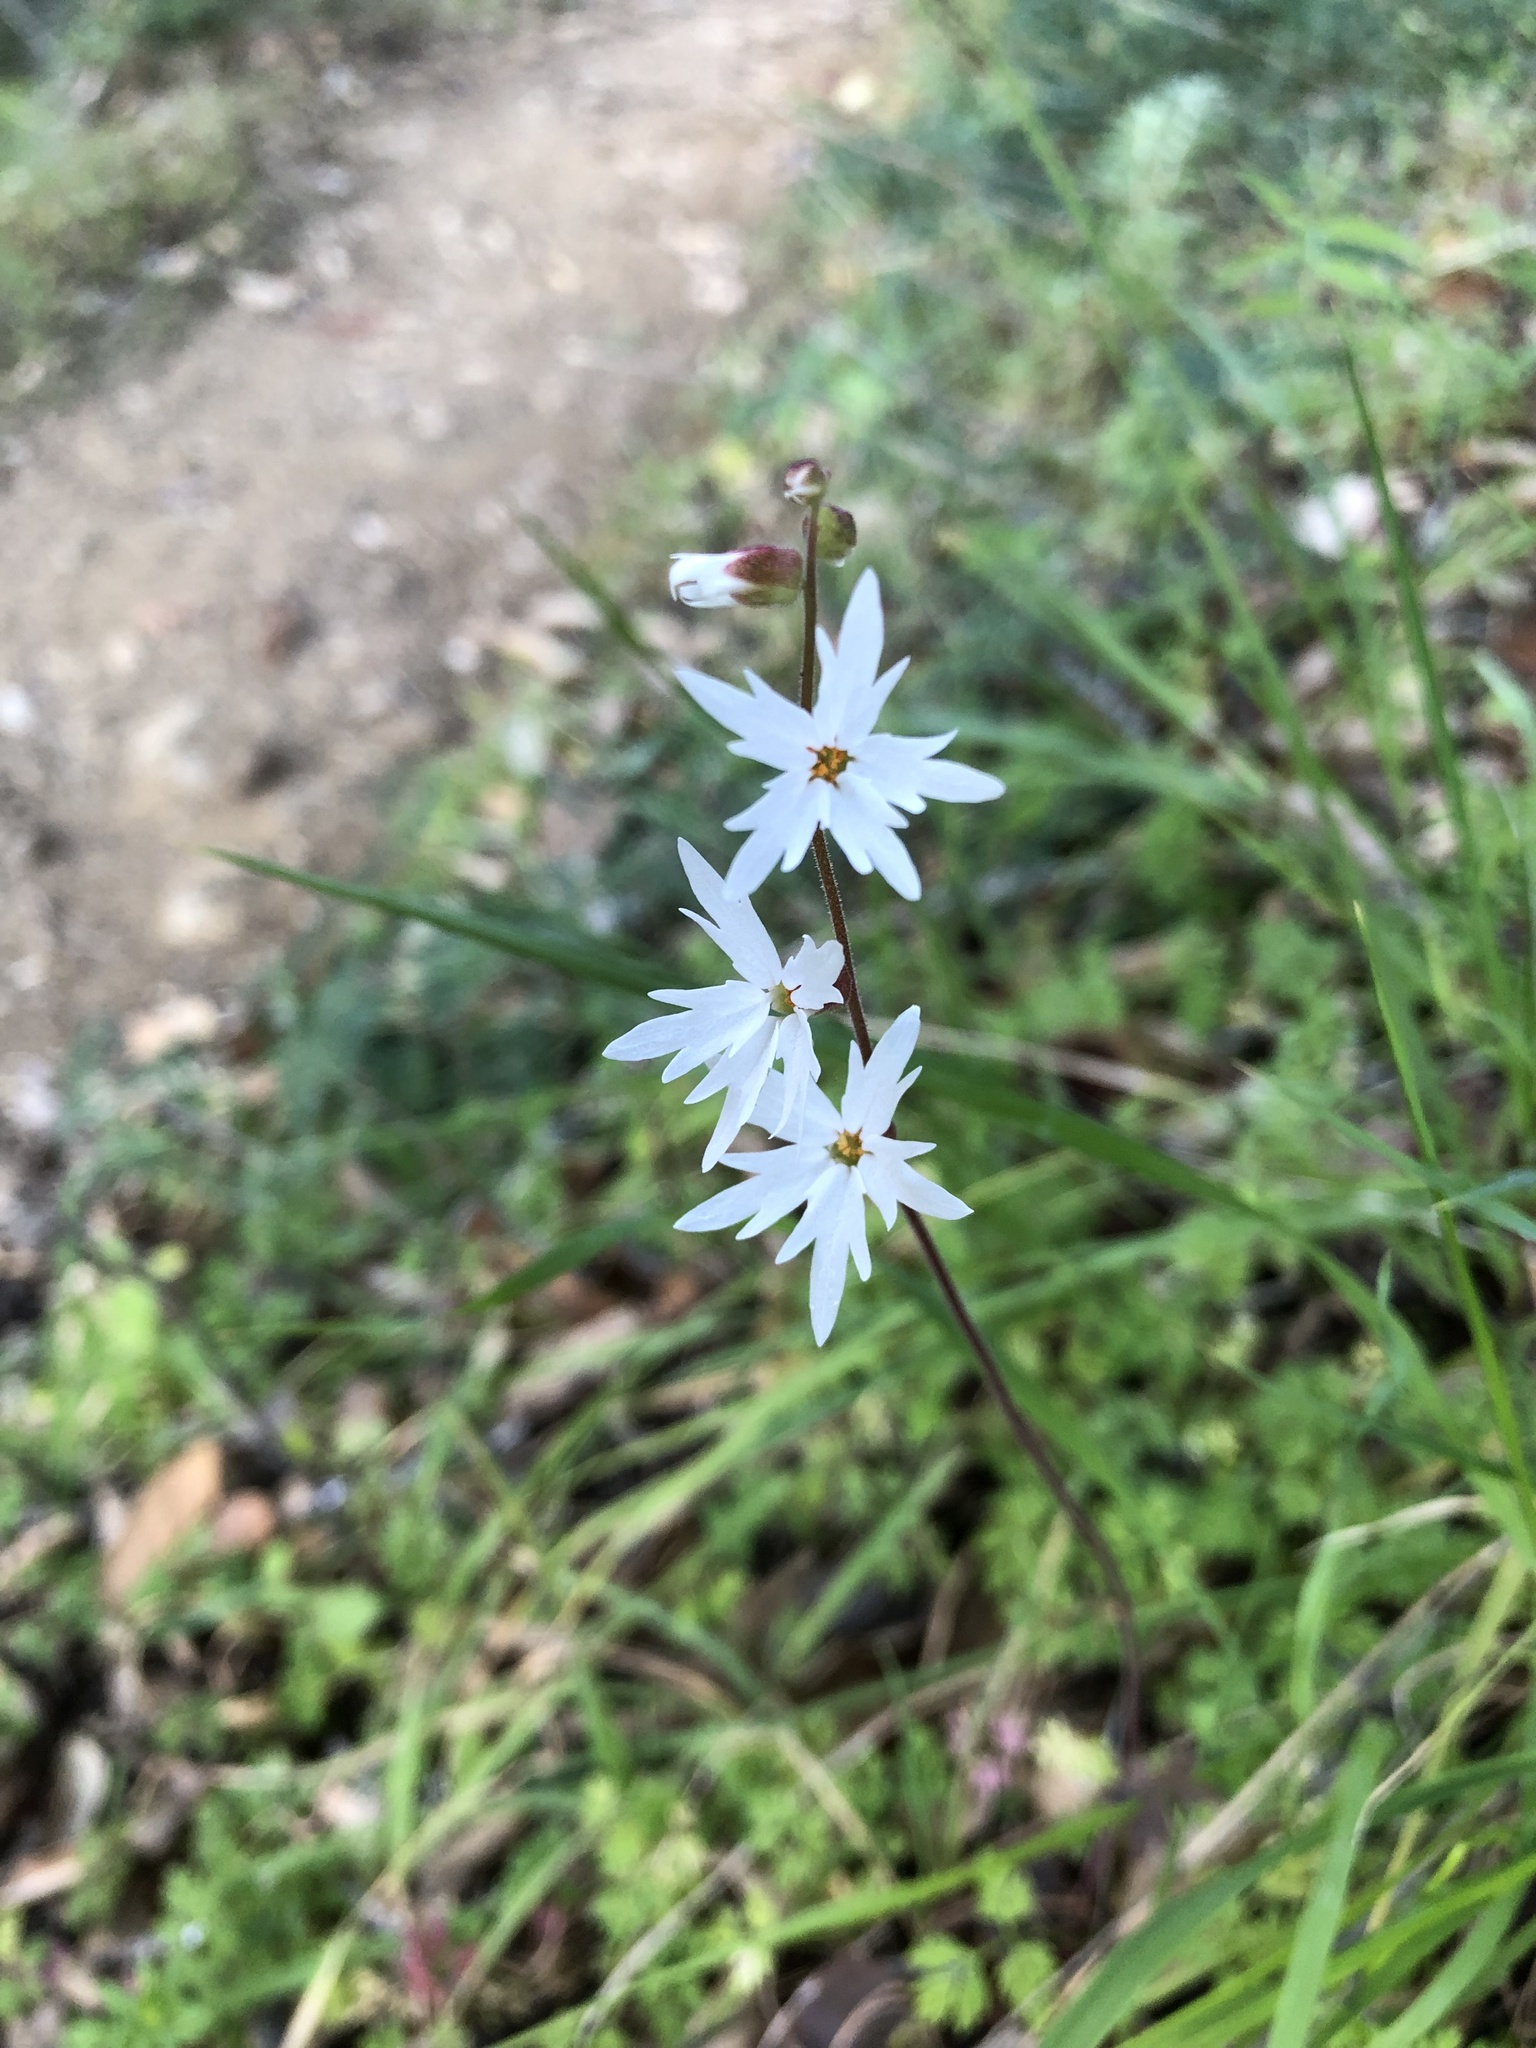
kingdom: Plantae
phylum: Tracheophyta
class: Magnoliopsida
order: Saxifragales
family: Saxifragaceae
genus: Lithophragma
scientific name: Lithophragma heterophyllum
